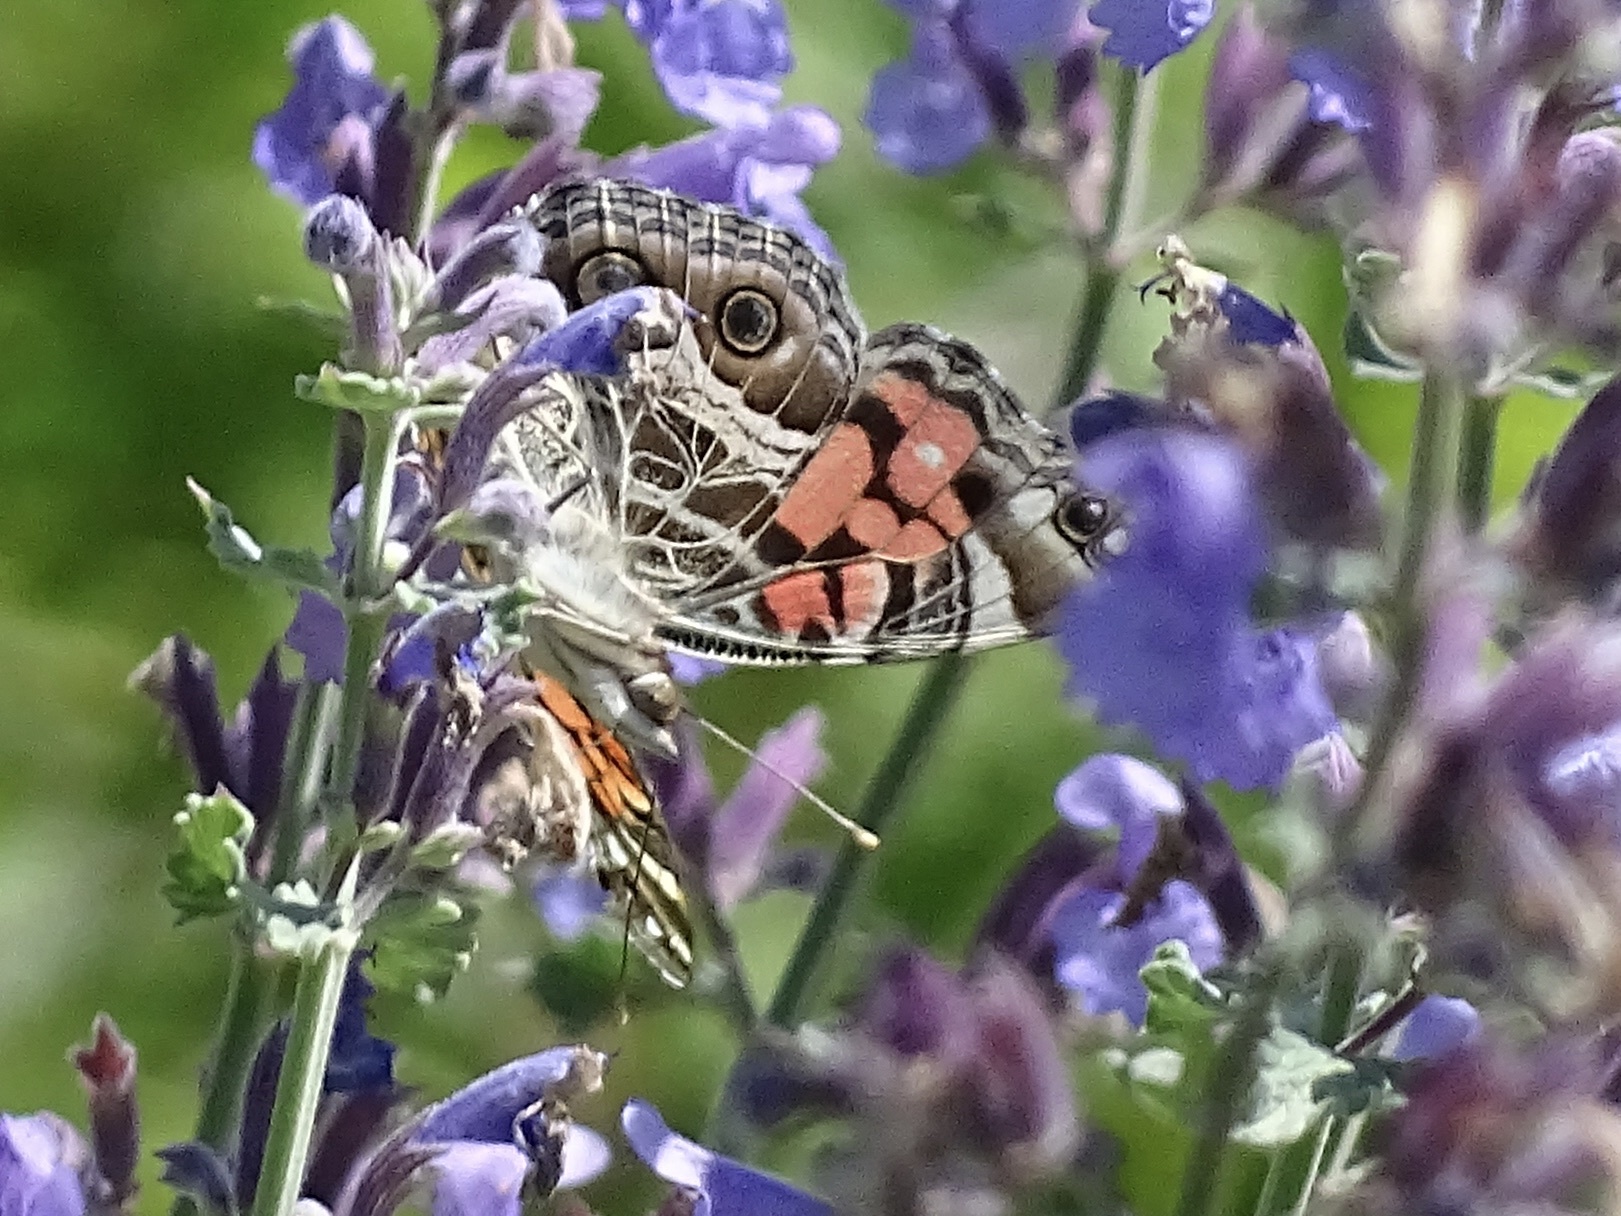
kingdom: Animalia
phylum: Arthropoda
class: Insecta
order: Lepidoptera
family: Nymphalidae
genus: Vanessa
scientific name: Vanessa virginiensis
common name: American lady
